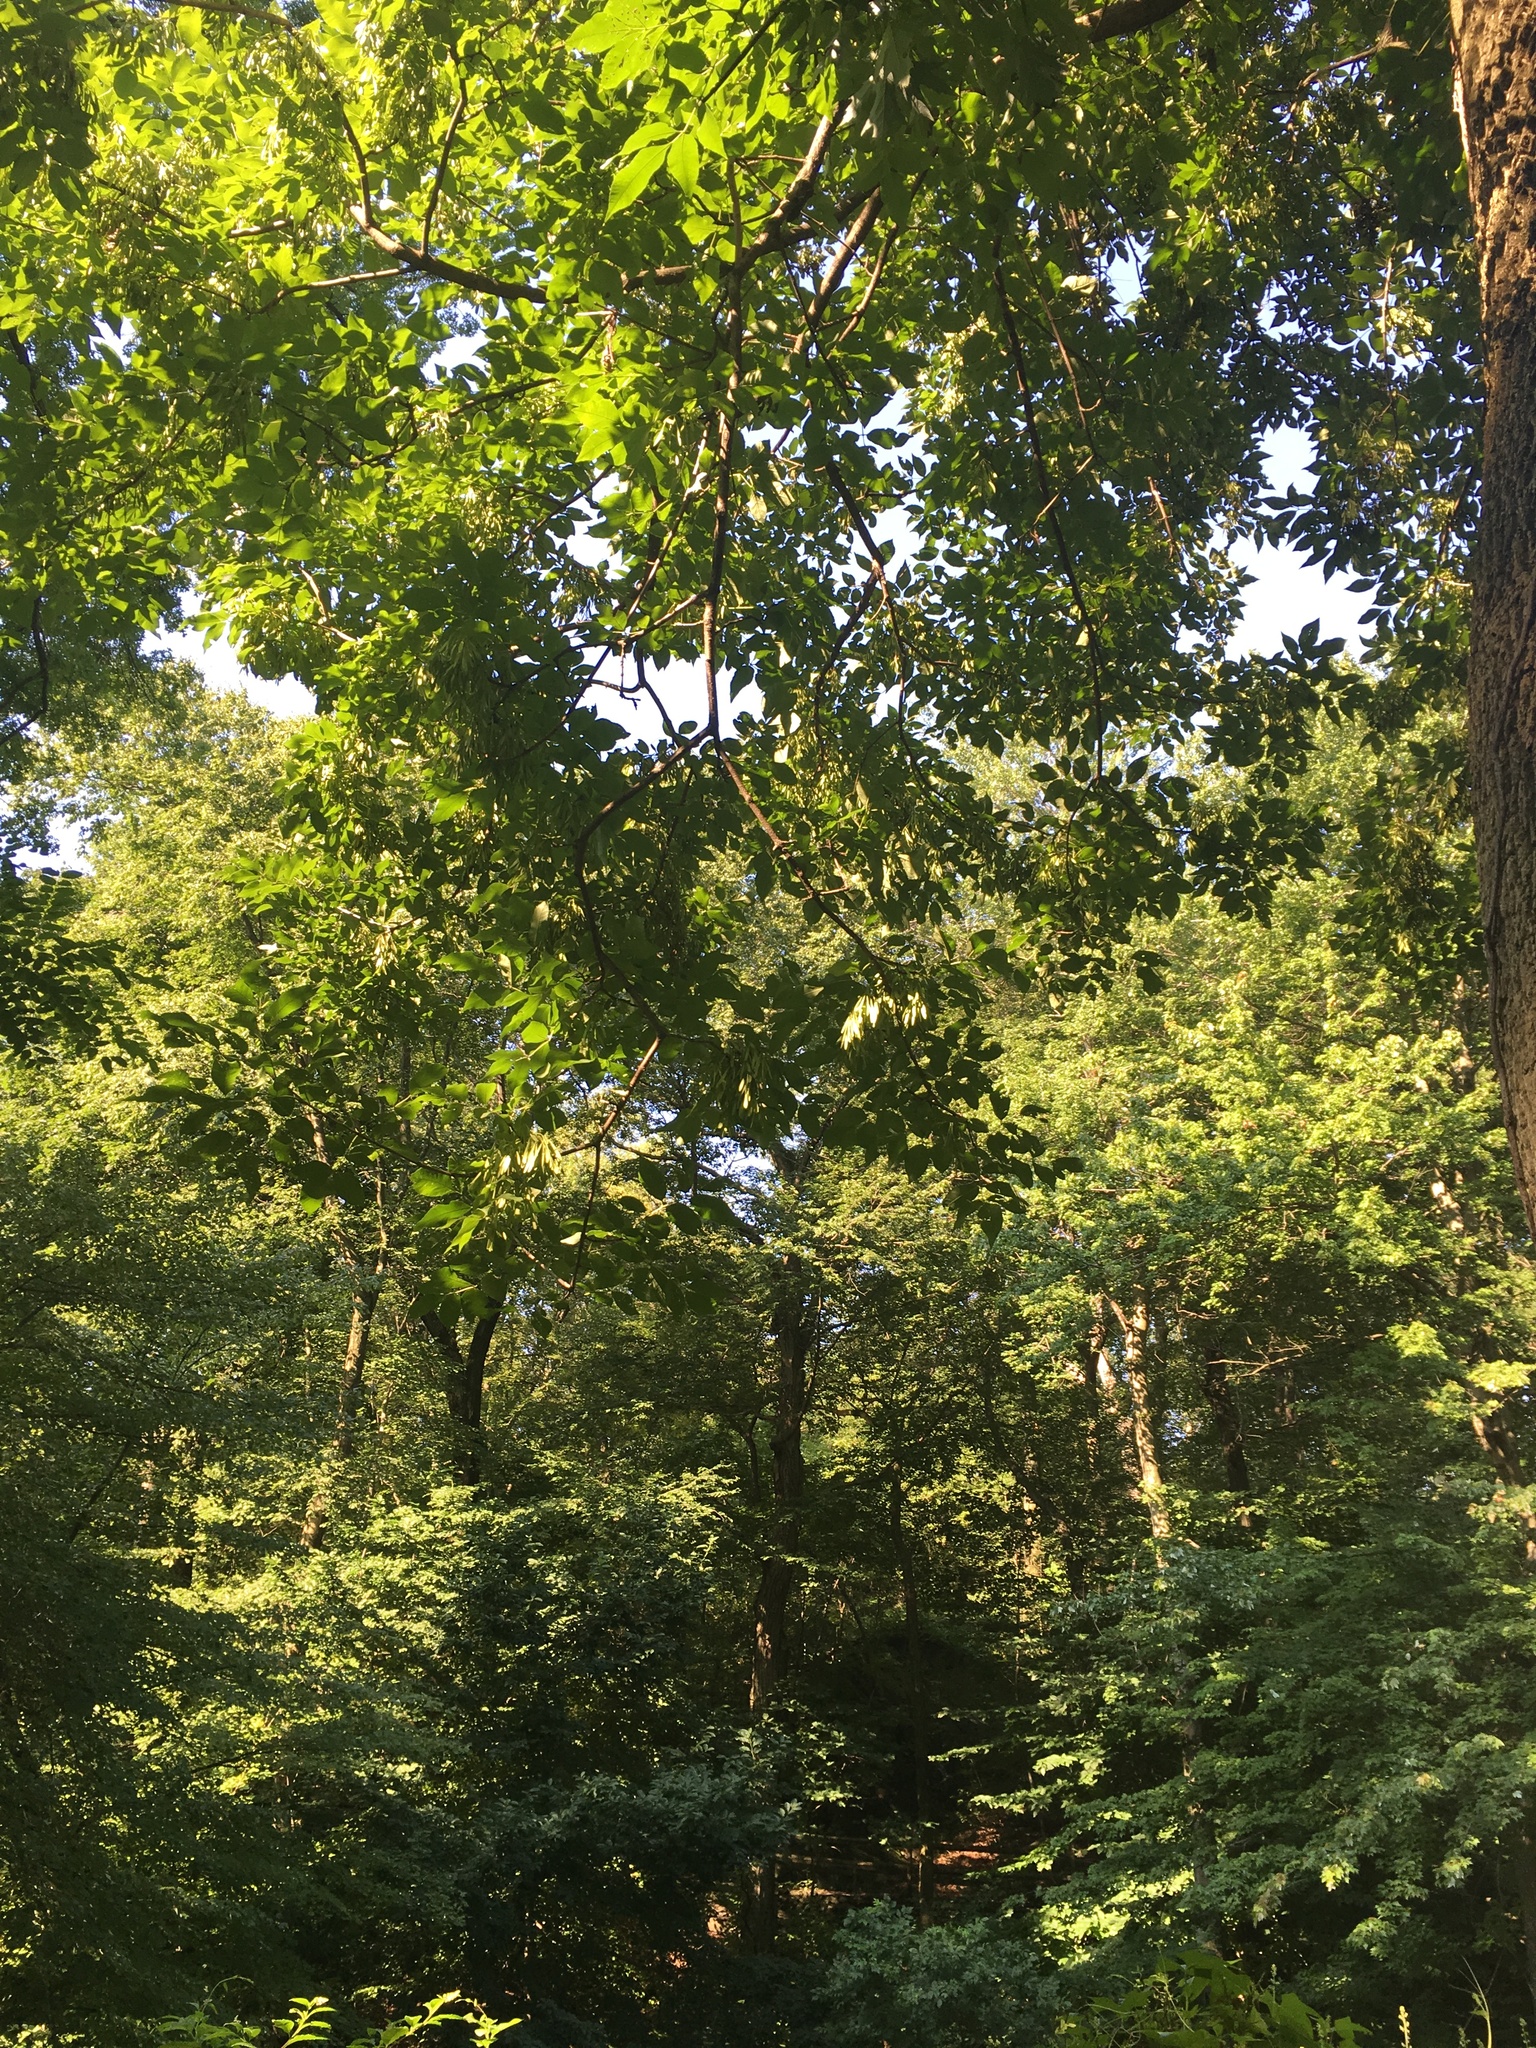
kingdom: Plantae
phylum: Tracheophyta
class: Magnoliopsida
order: Lamiales
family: Oleaceae
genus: Fraxinus
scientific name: Fraxinus pennsylvanica
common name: Green ash
